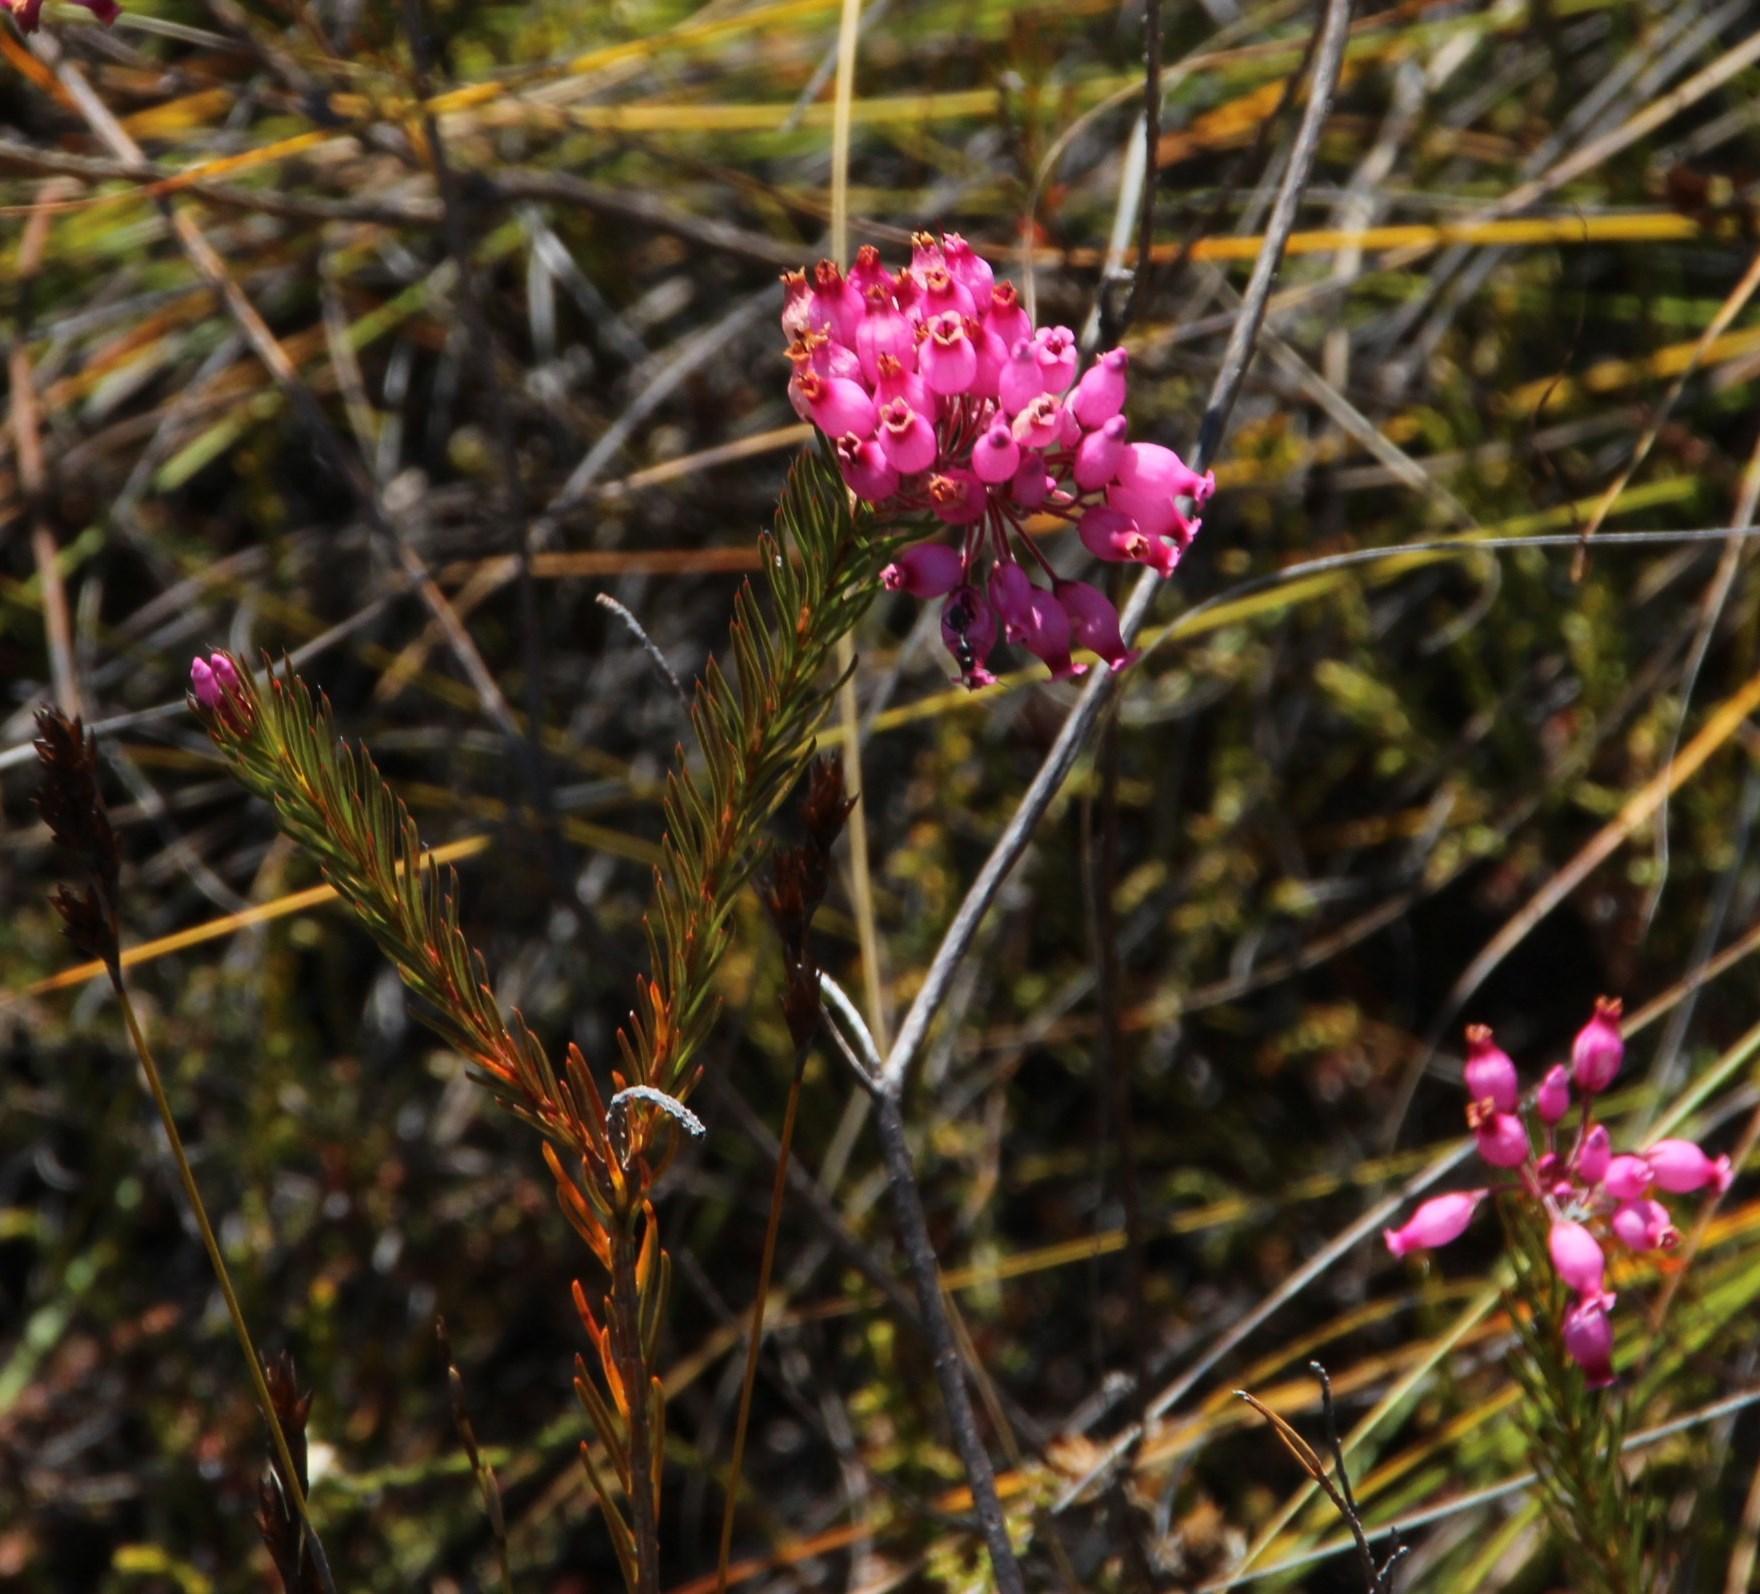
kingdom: Plantae
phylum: Tracheophyta
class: Magnoliopsida
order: Ericales
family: Ericaceae
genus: Erica
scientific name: Erica inflata
